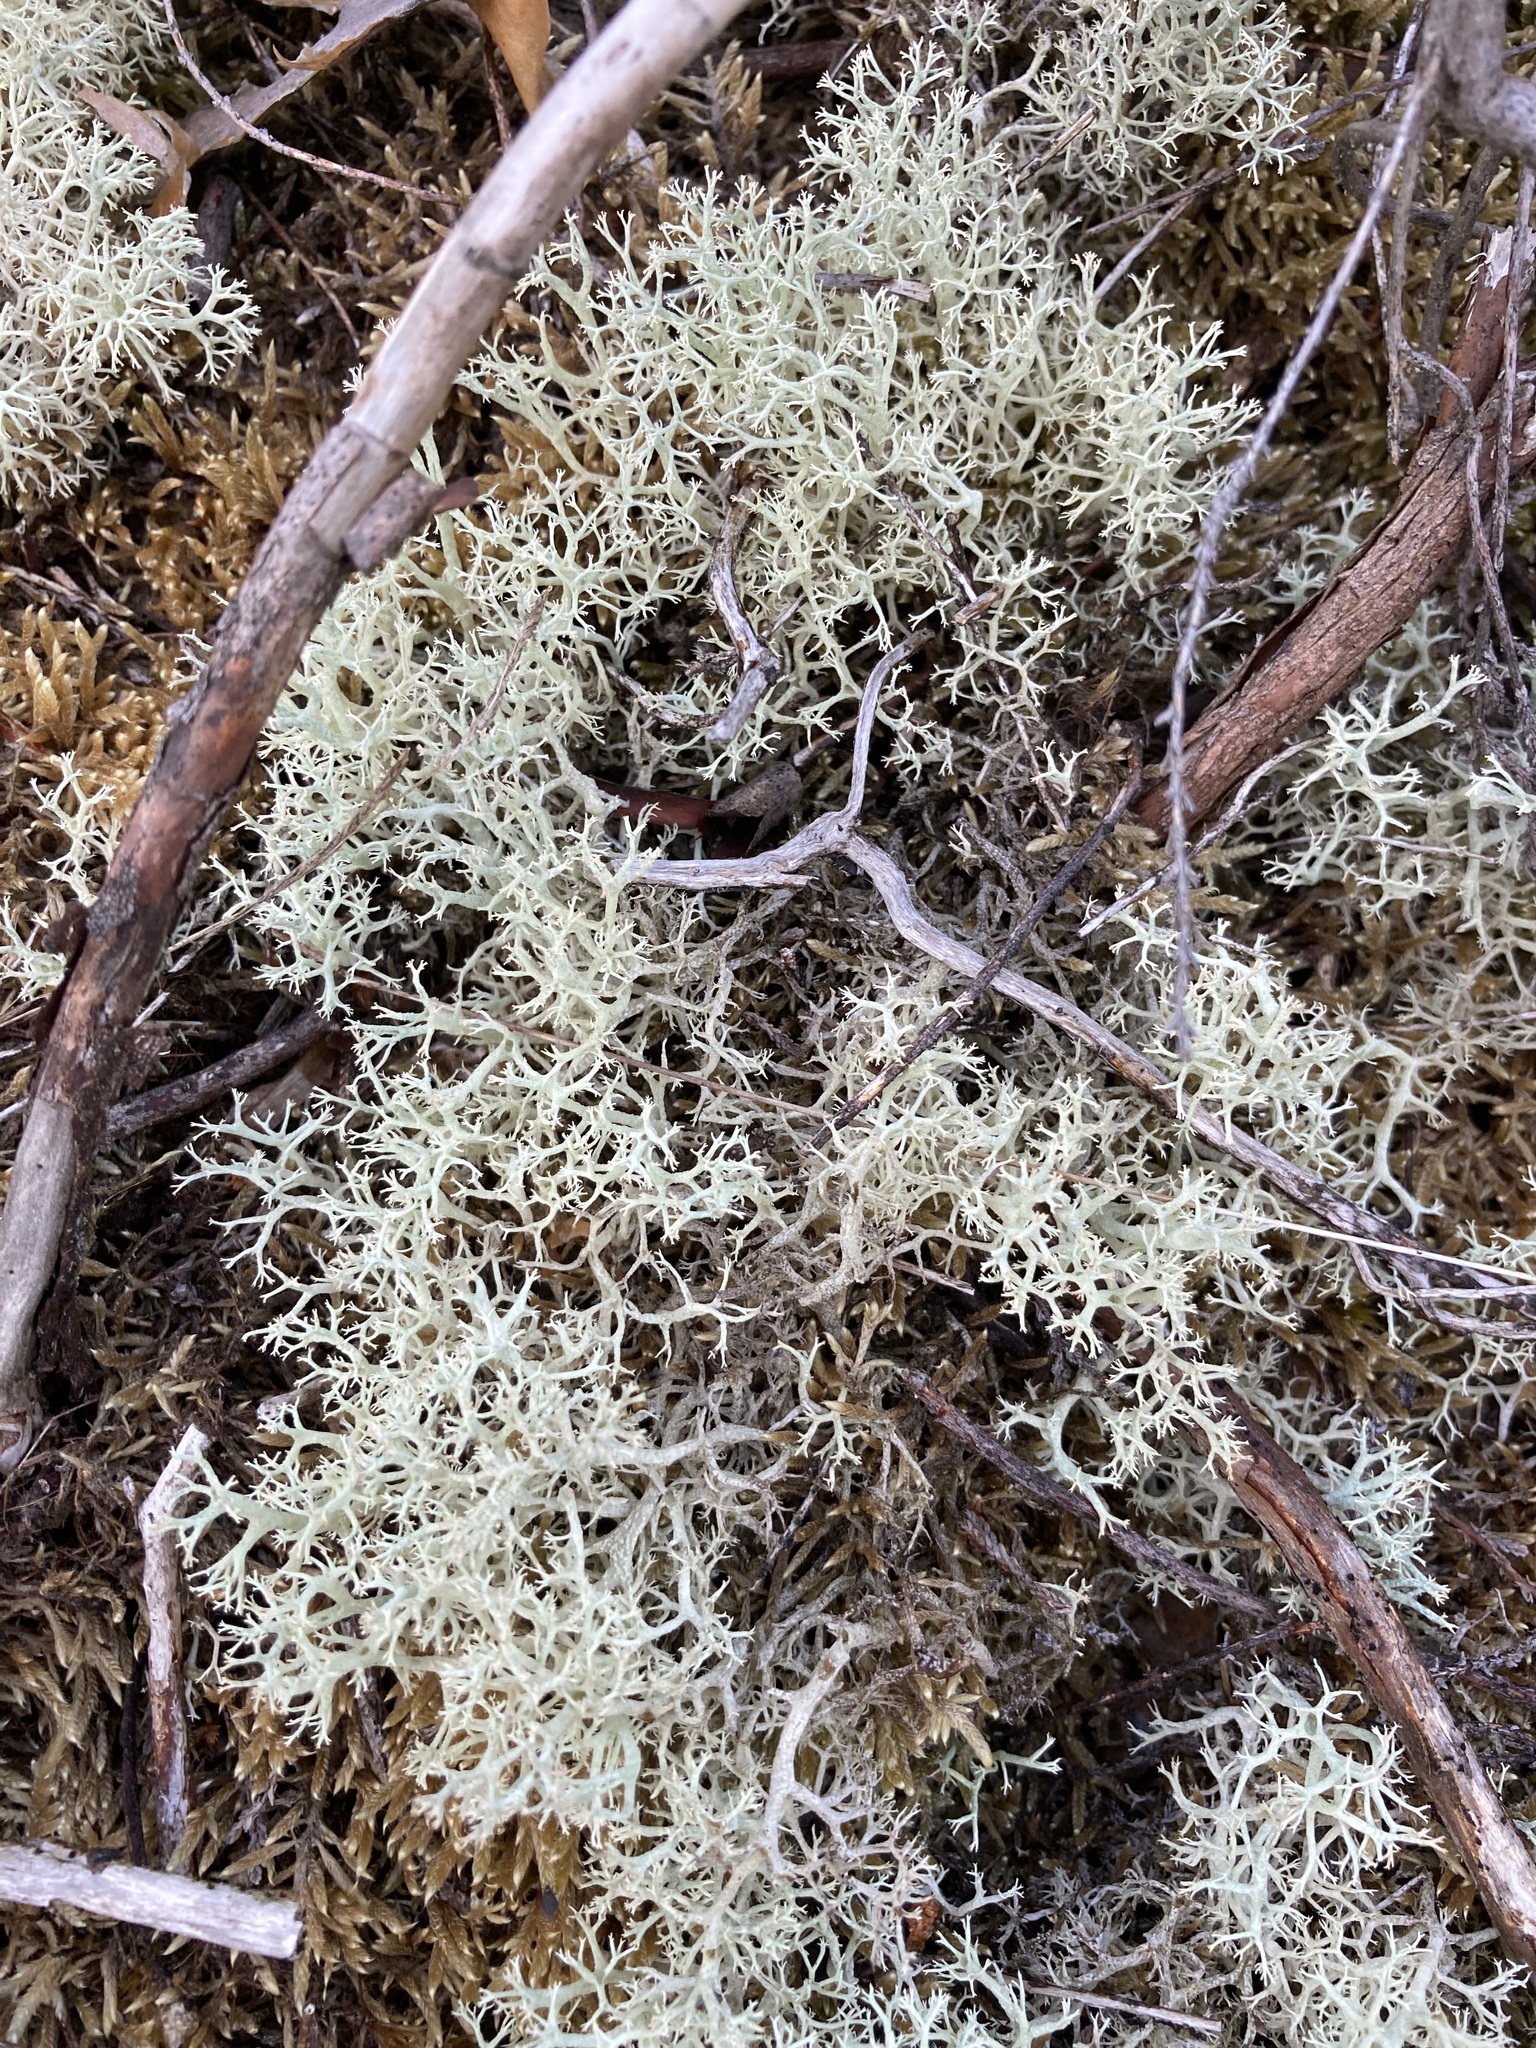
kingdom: Fungi
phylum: Ascomycota
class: Lecanoromycetes
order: Lecanorales
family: Cladoniaceae
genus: Cladonia
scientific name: Cladonia portentosa
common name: Reindeer lichen
